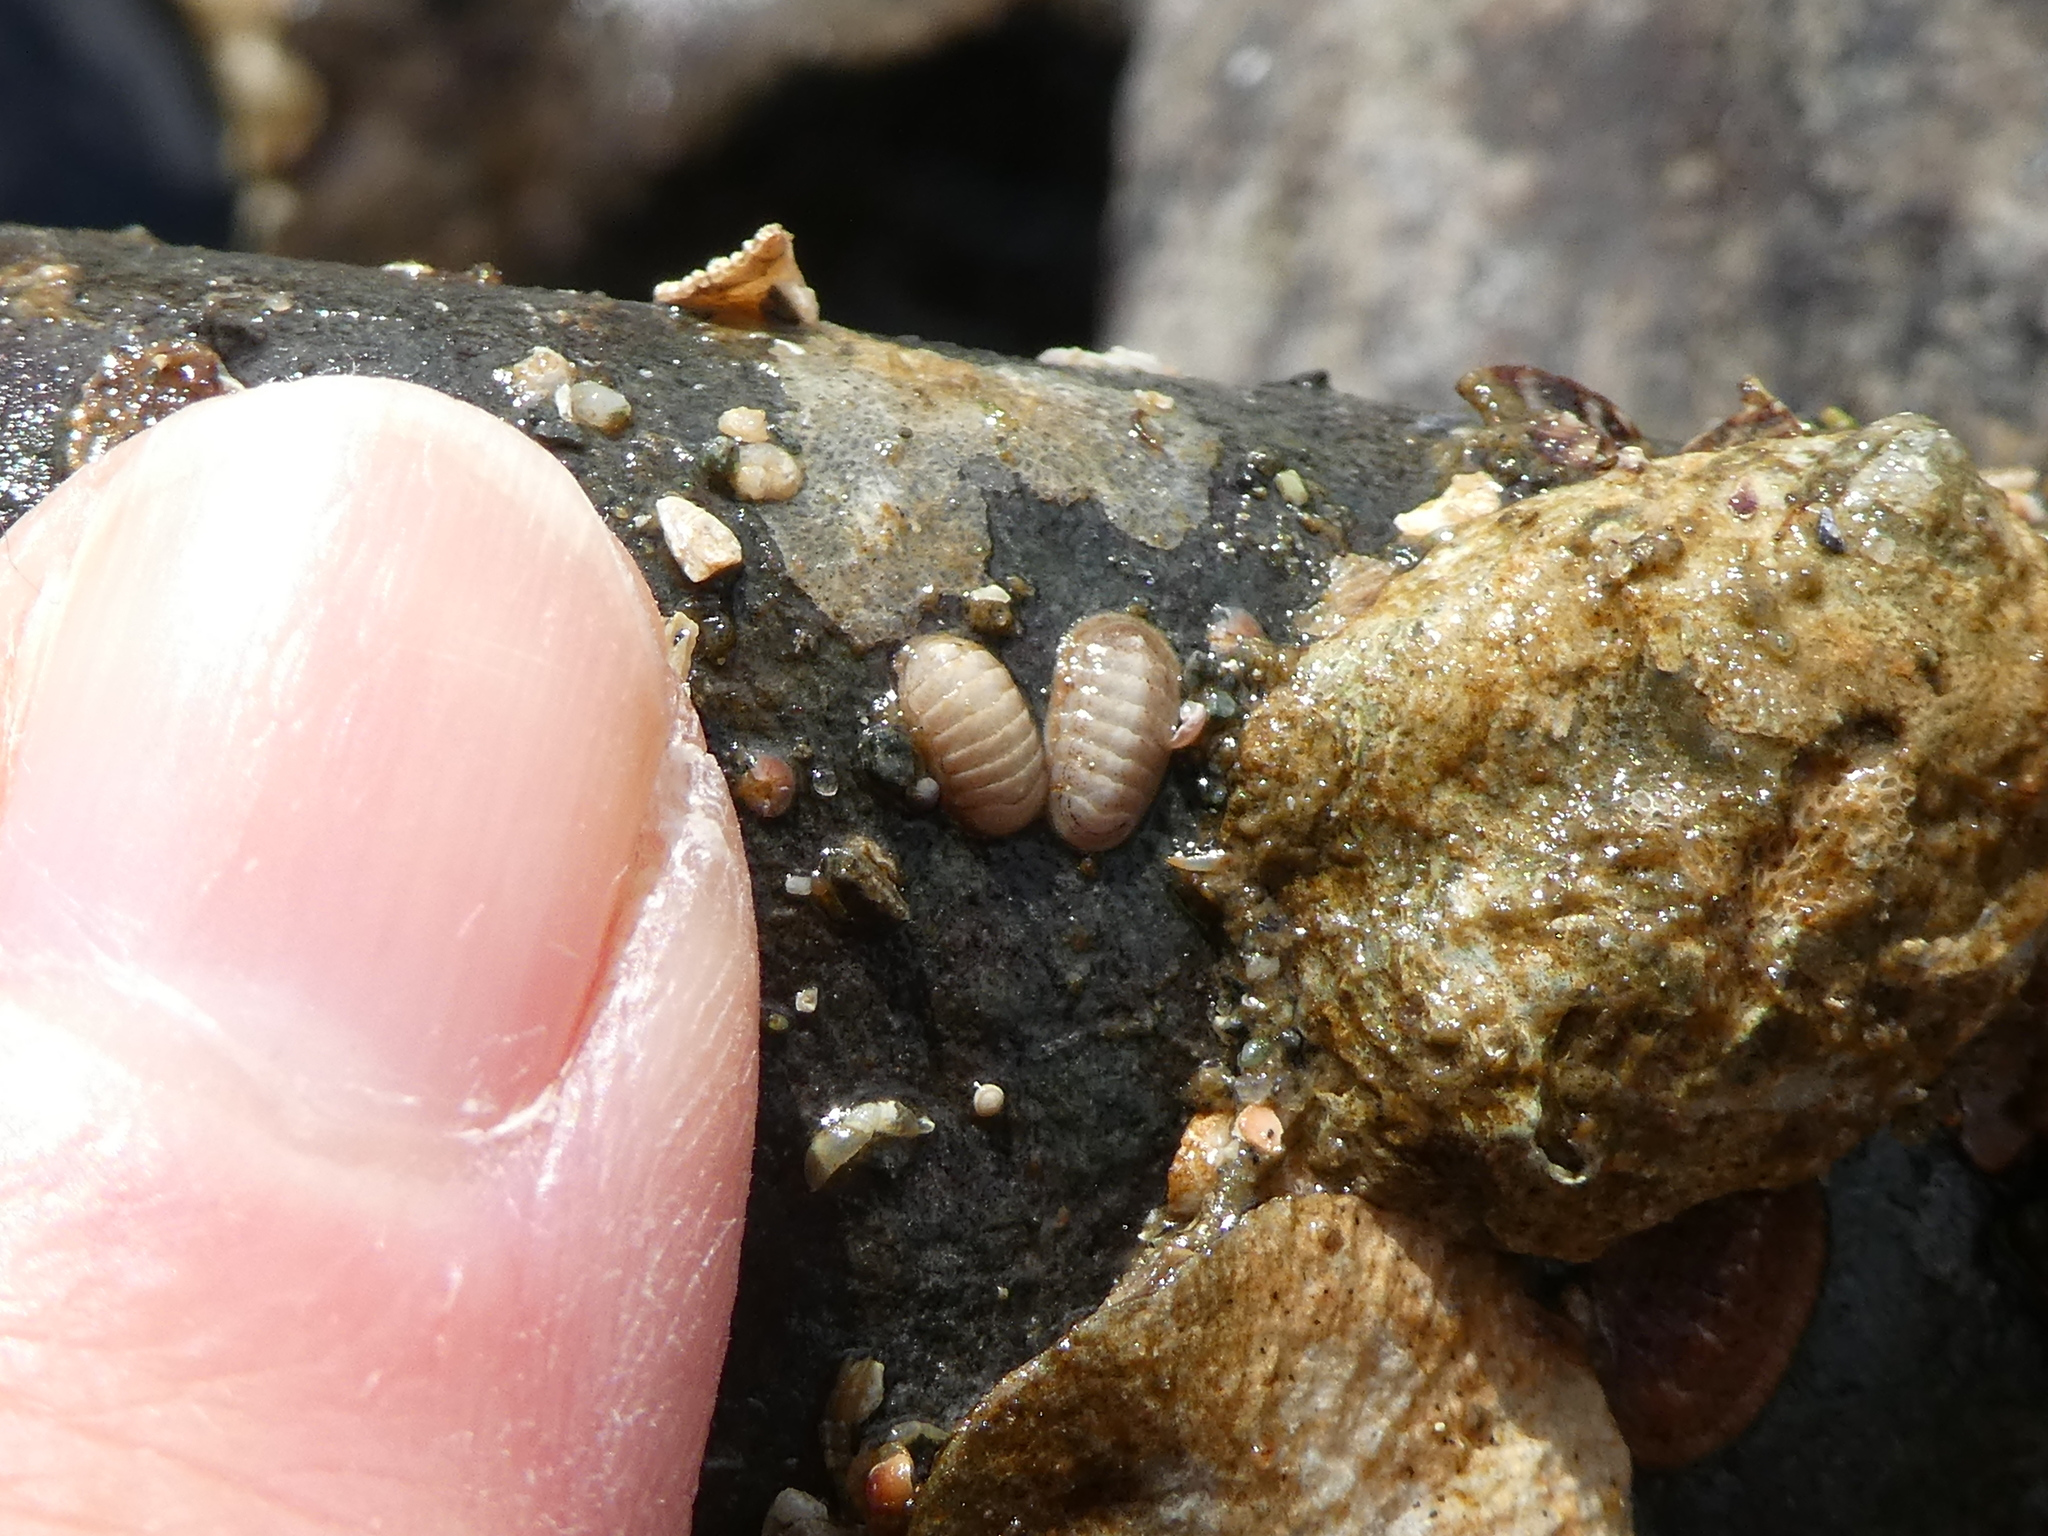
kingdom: Animalia
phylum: Mollusca
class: Polyplacophora
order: Lepidopleurida
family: Leptochitonidae
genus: Leptochiton
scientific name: Leptochiton rugatus
